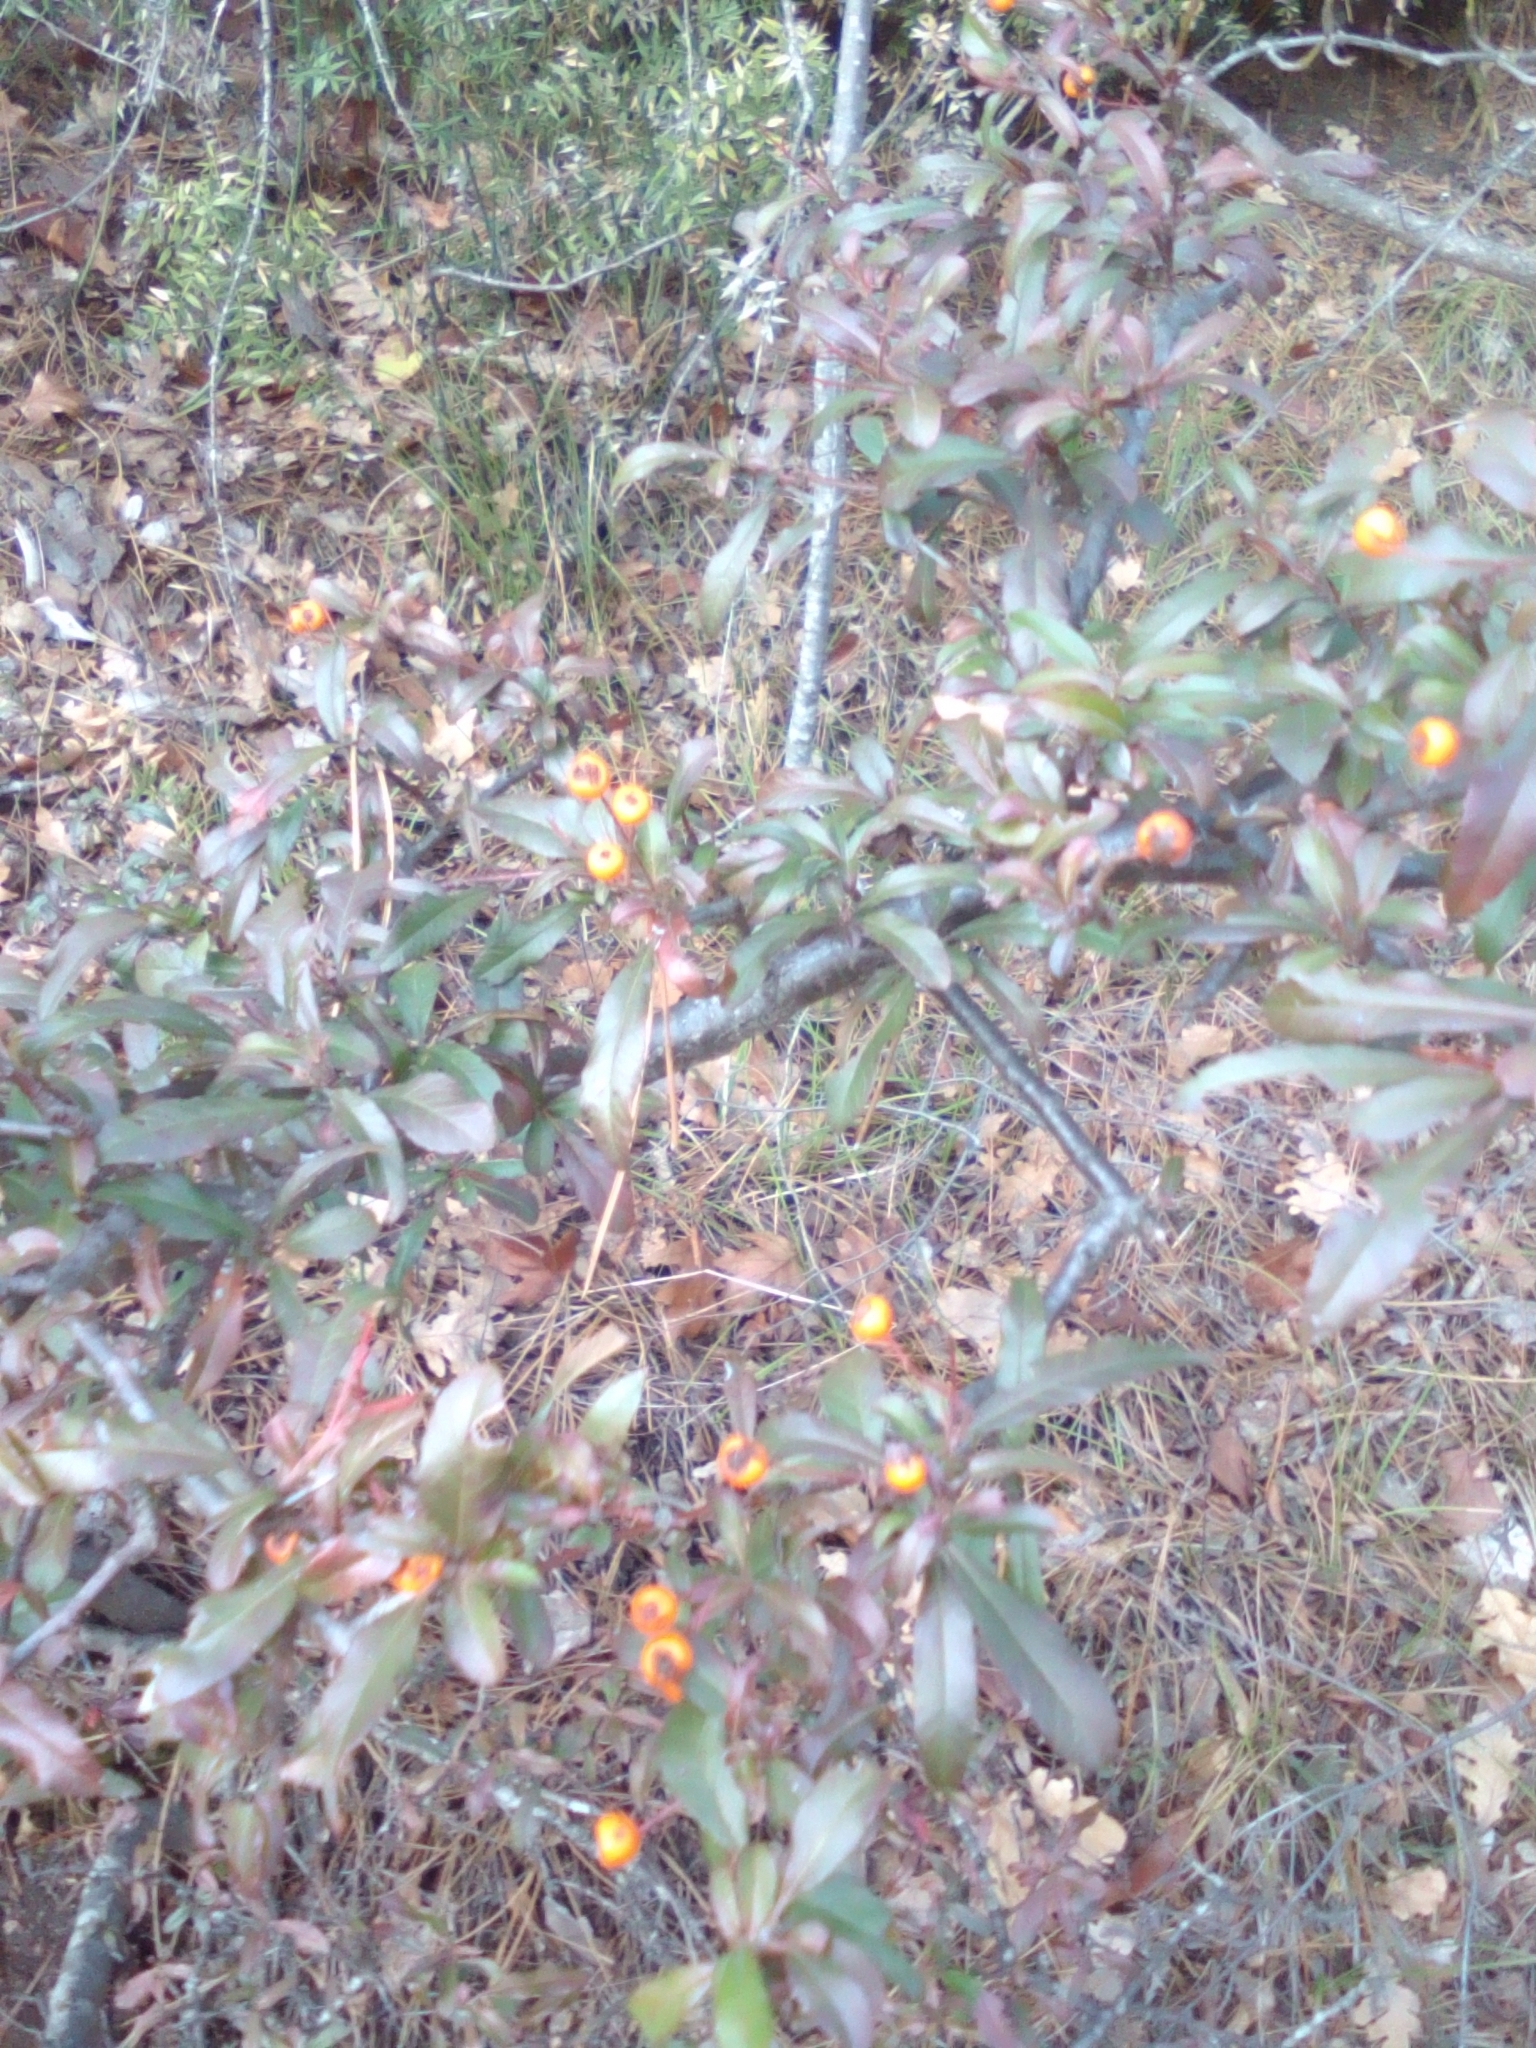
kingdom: Plantae
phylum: Tracheophyta
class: Magnoliopsida
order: Rosales
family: Rosaceae
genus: Pyracantha
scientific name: Pyracantha coccinea
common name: Firethorn
